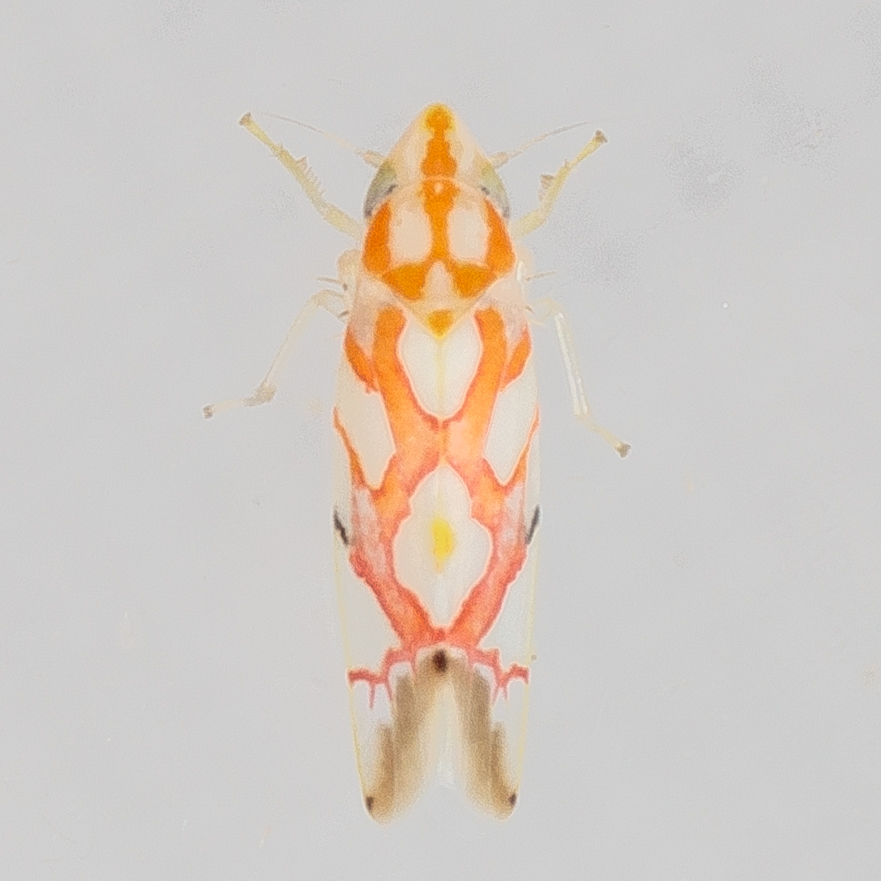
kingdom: Animalia
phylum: Arthropoda
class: Insecta
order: Hemiptera
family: Cicadellidae
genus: Erythroneura
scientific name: Erythroneura fraxa
